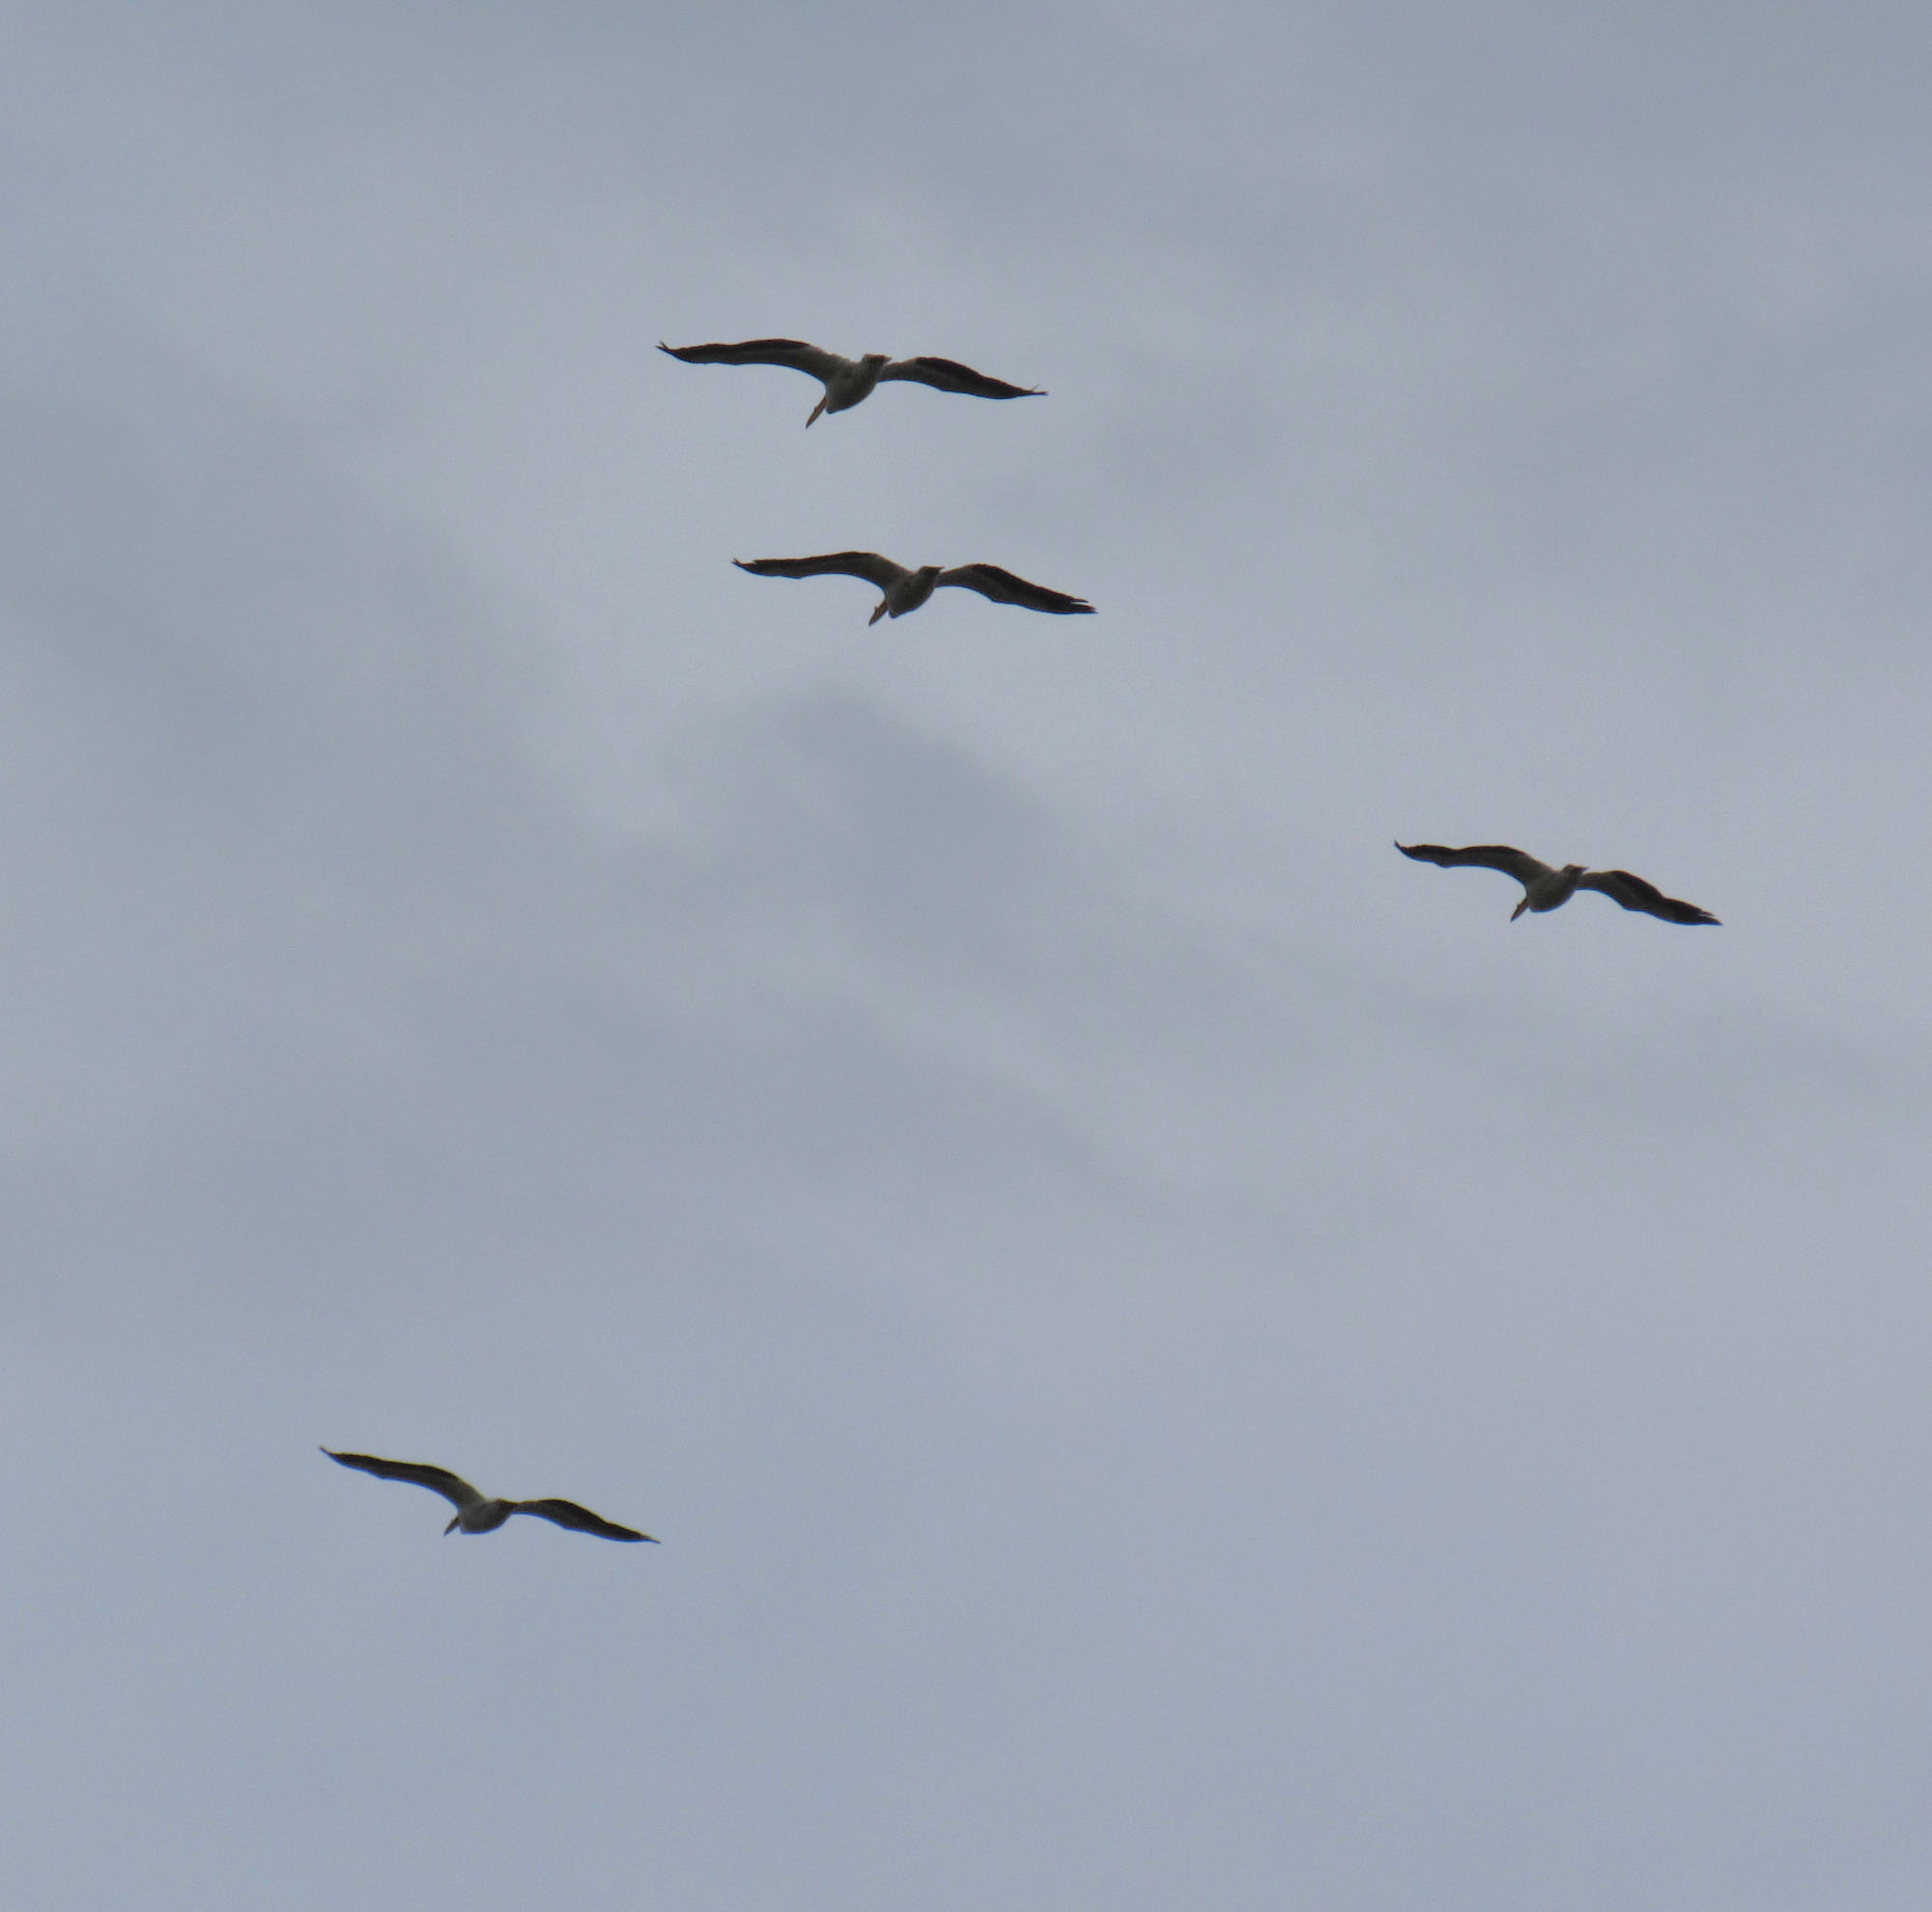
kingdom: Animalia
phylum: Chordata
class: Aves
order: Pelecaniformes
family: Pelecanidae
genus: Pelecanus
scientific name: Pelecanus erythrorhynchos
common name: American white pelican
